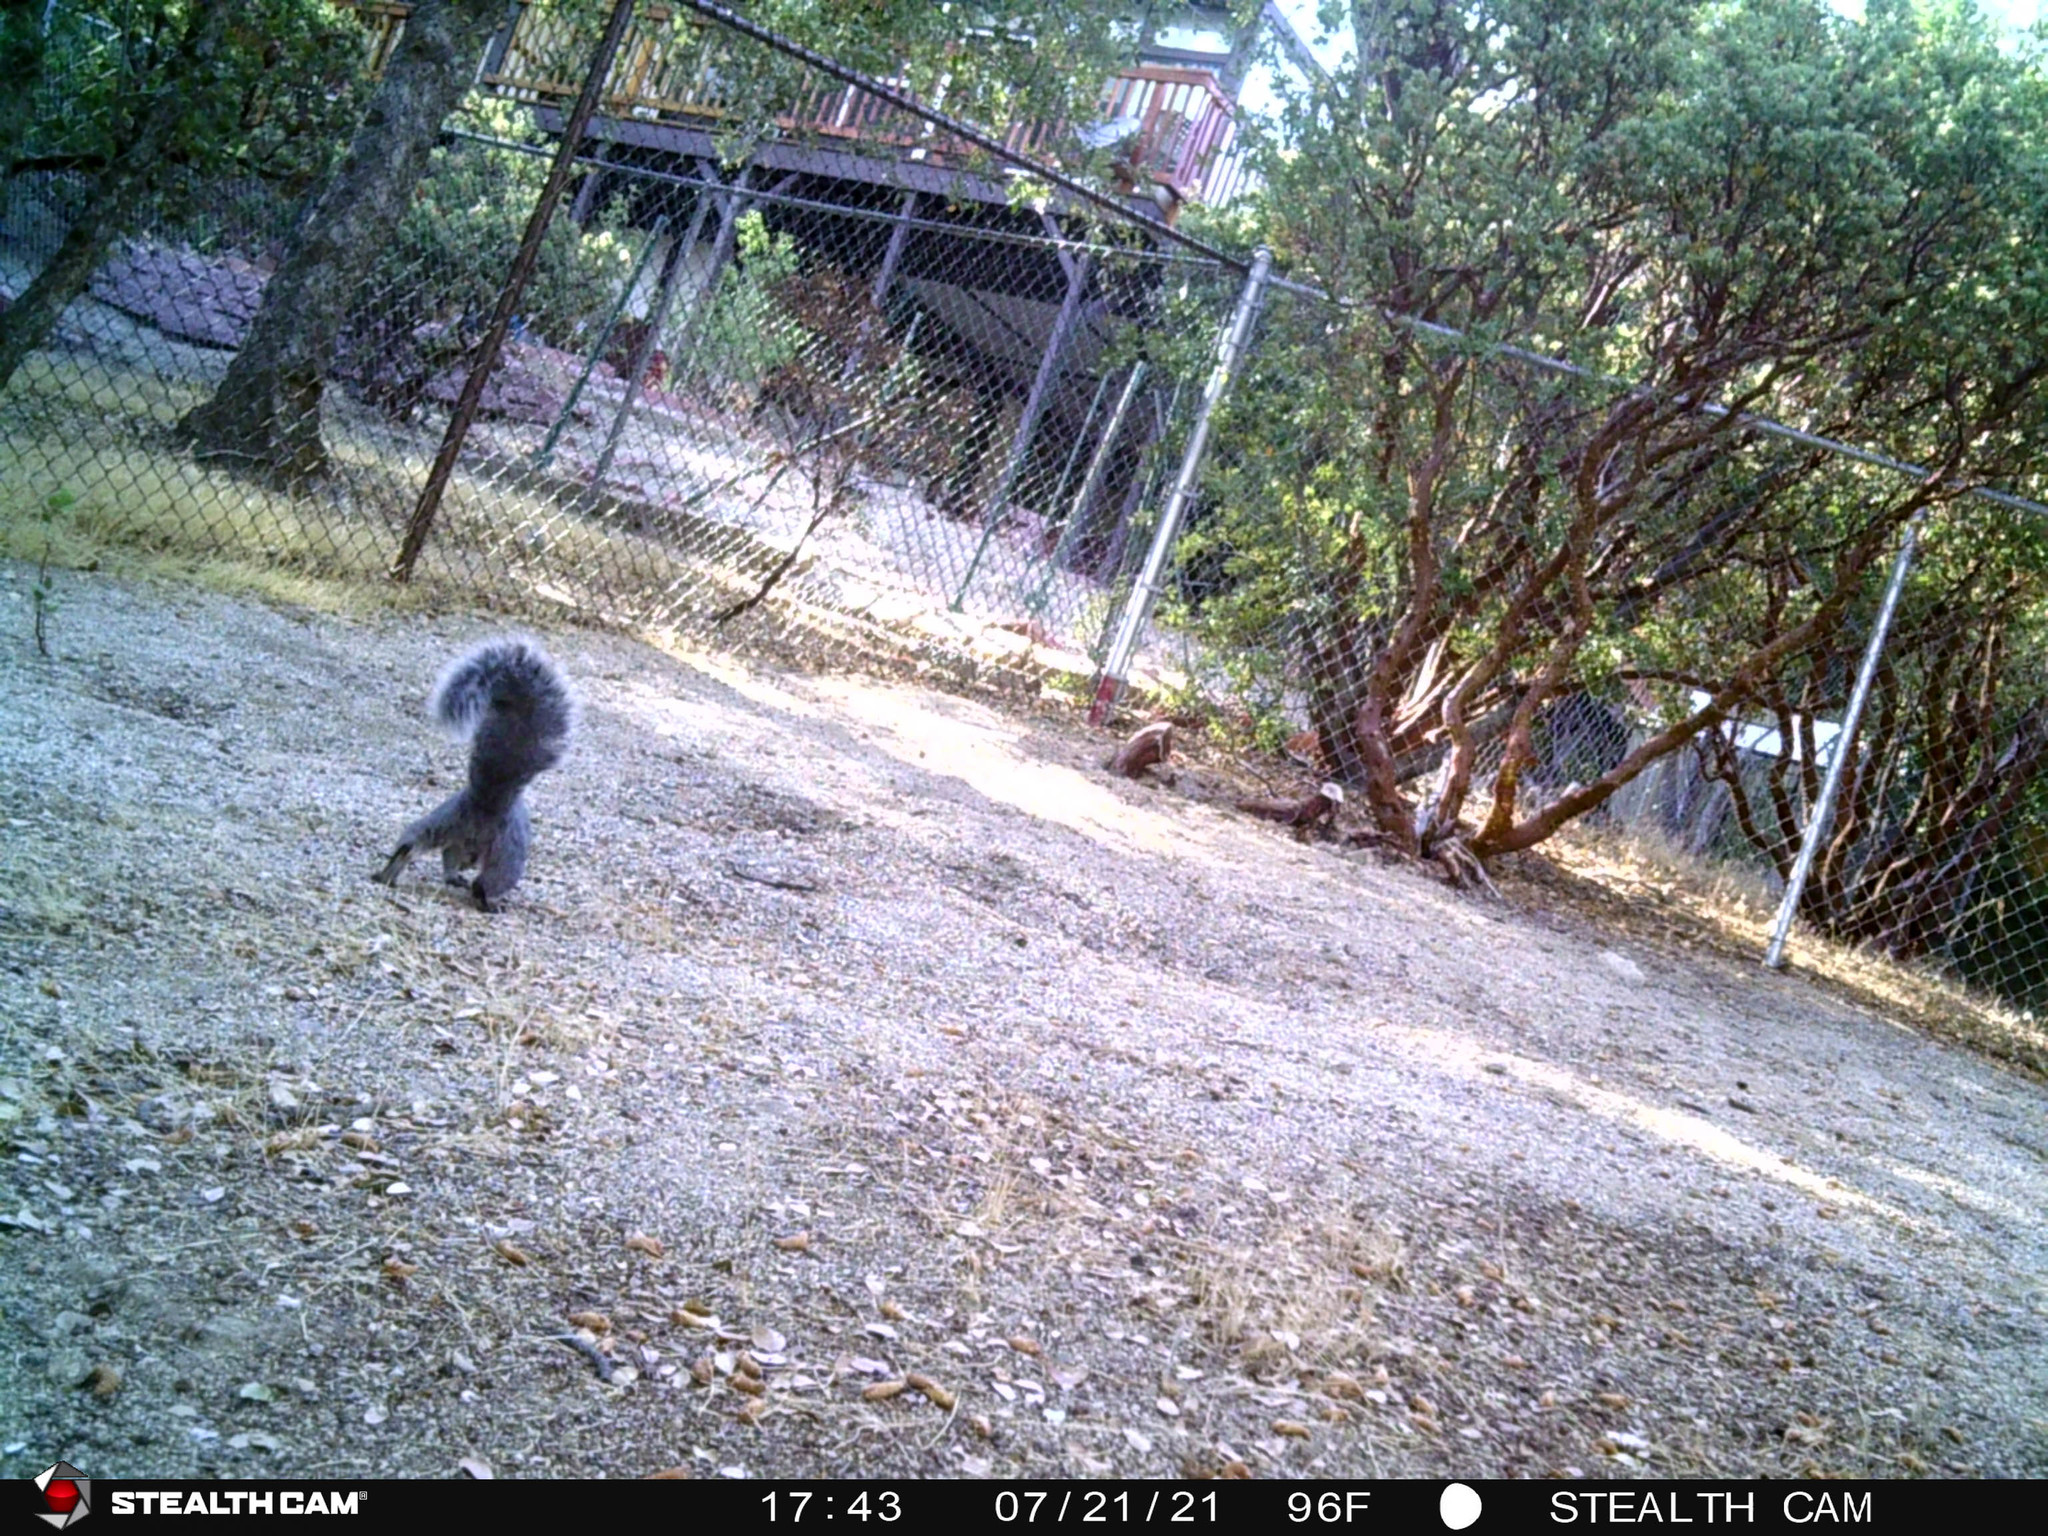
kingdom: Animalia
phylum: Chordata
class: Mammalia
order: Rodentia
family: Sciuridae
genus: Sciurus
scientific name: Sciurus griseus
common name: Western gray squirrel
